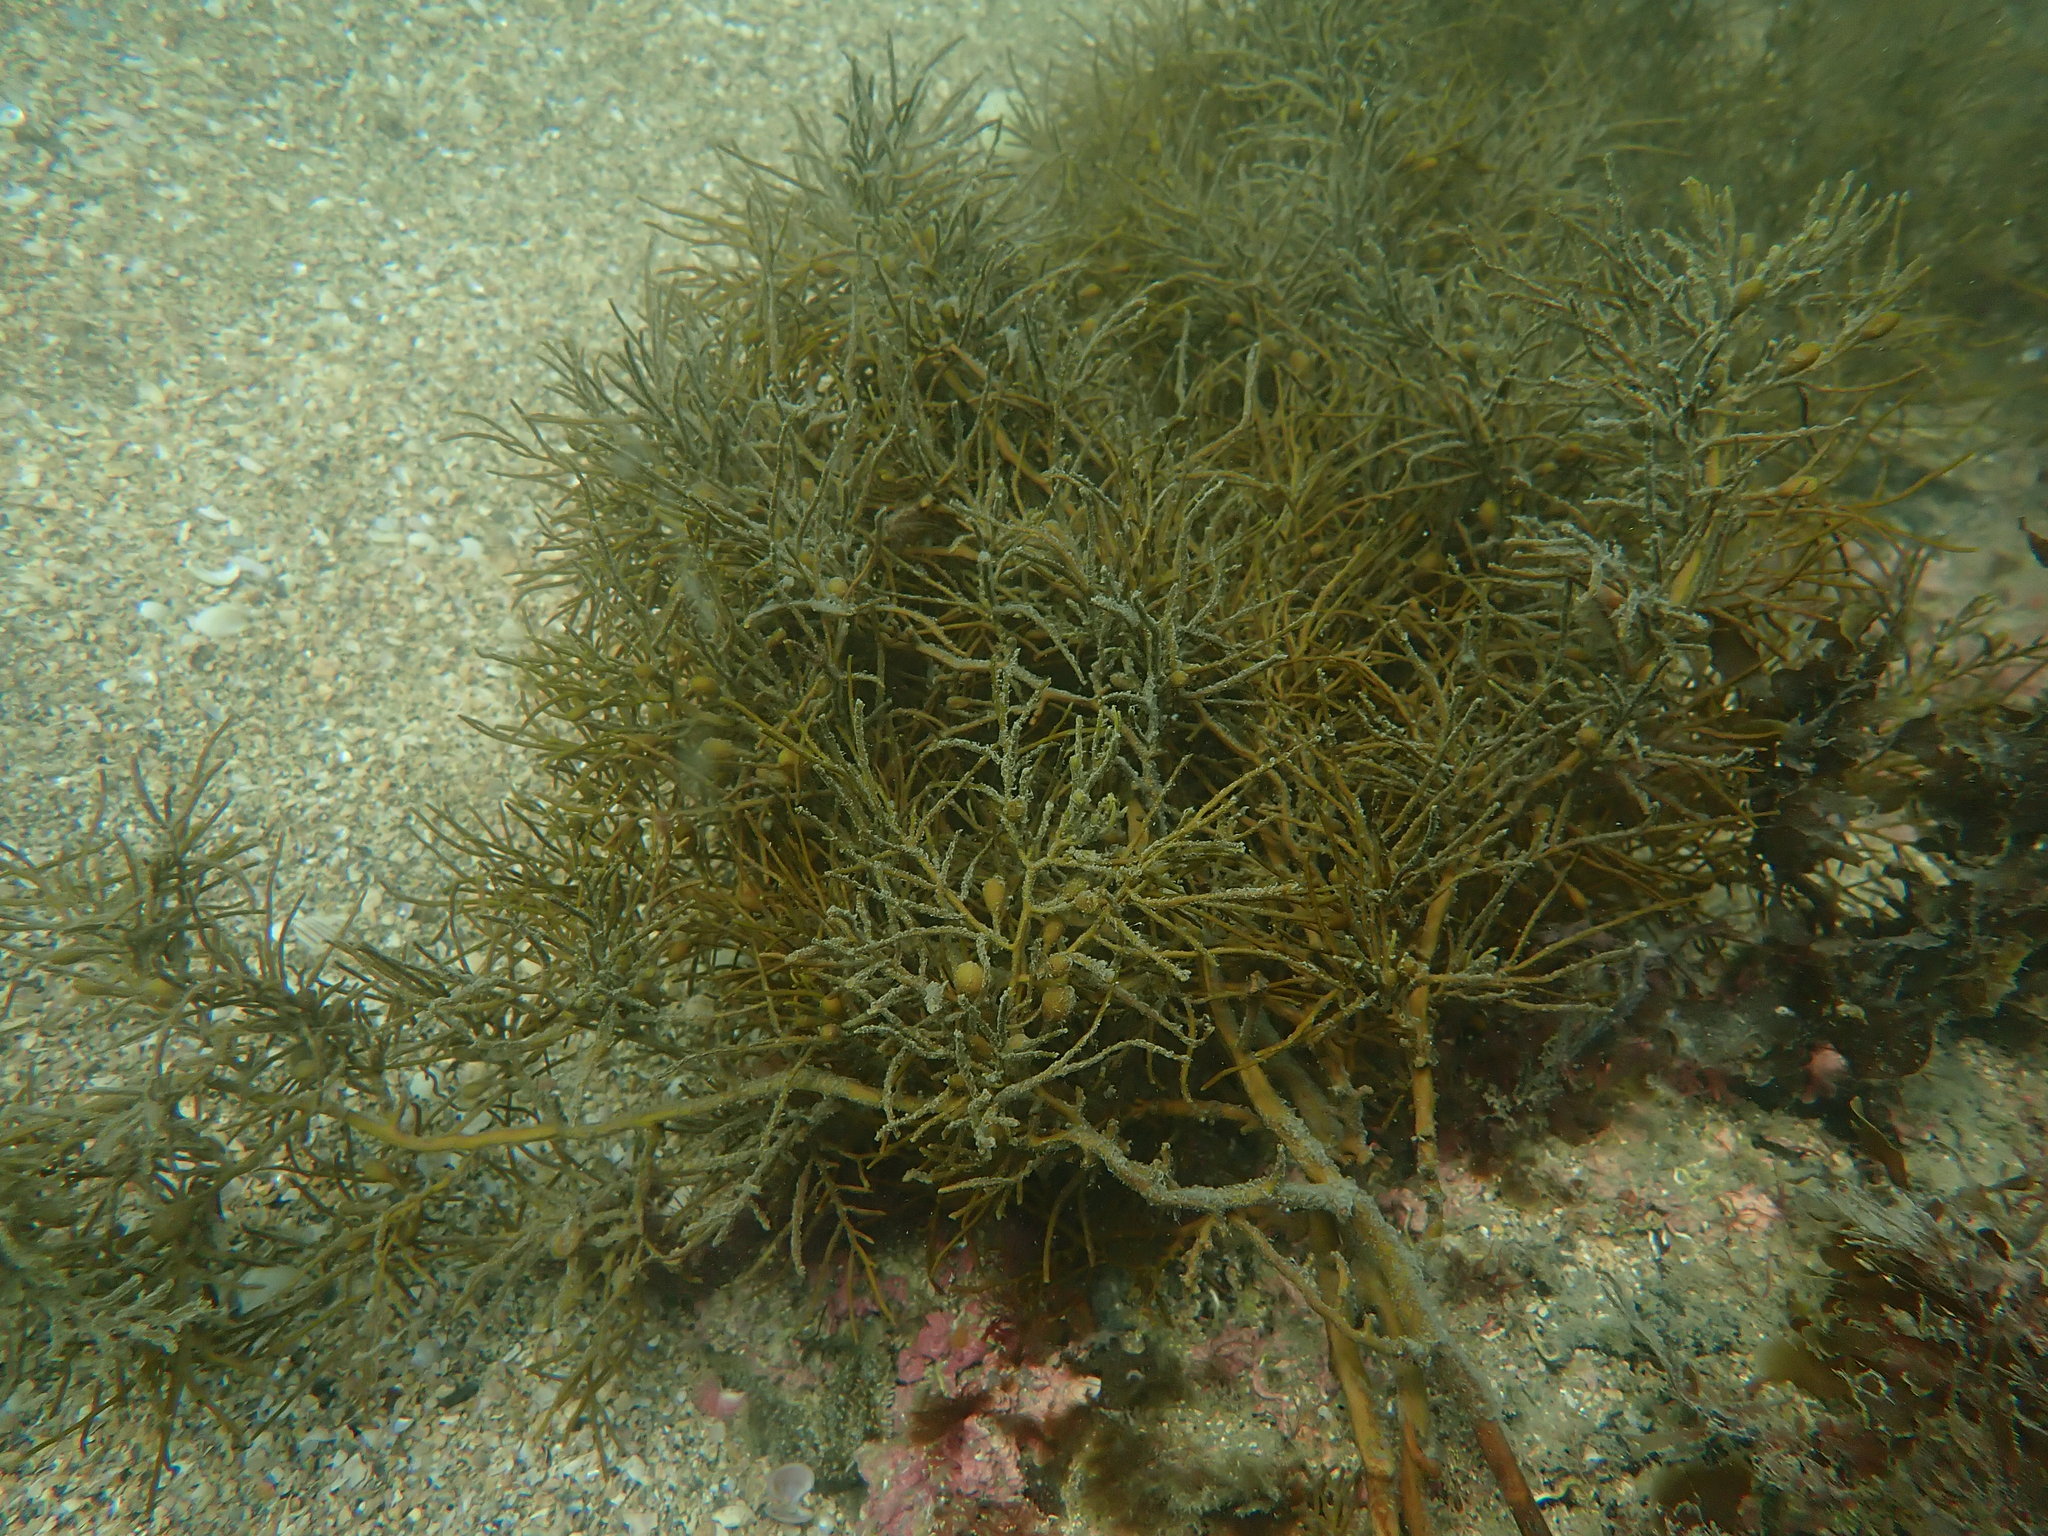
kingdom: Chromista
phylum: Ochrophyta
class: Phaeophyceae
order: Fucales
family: Sargassaceae
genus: Cystophora
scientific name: Cystophora retroflexa
